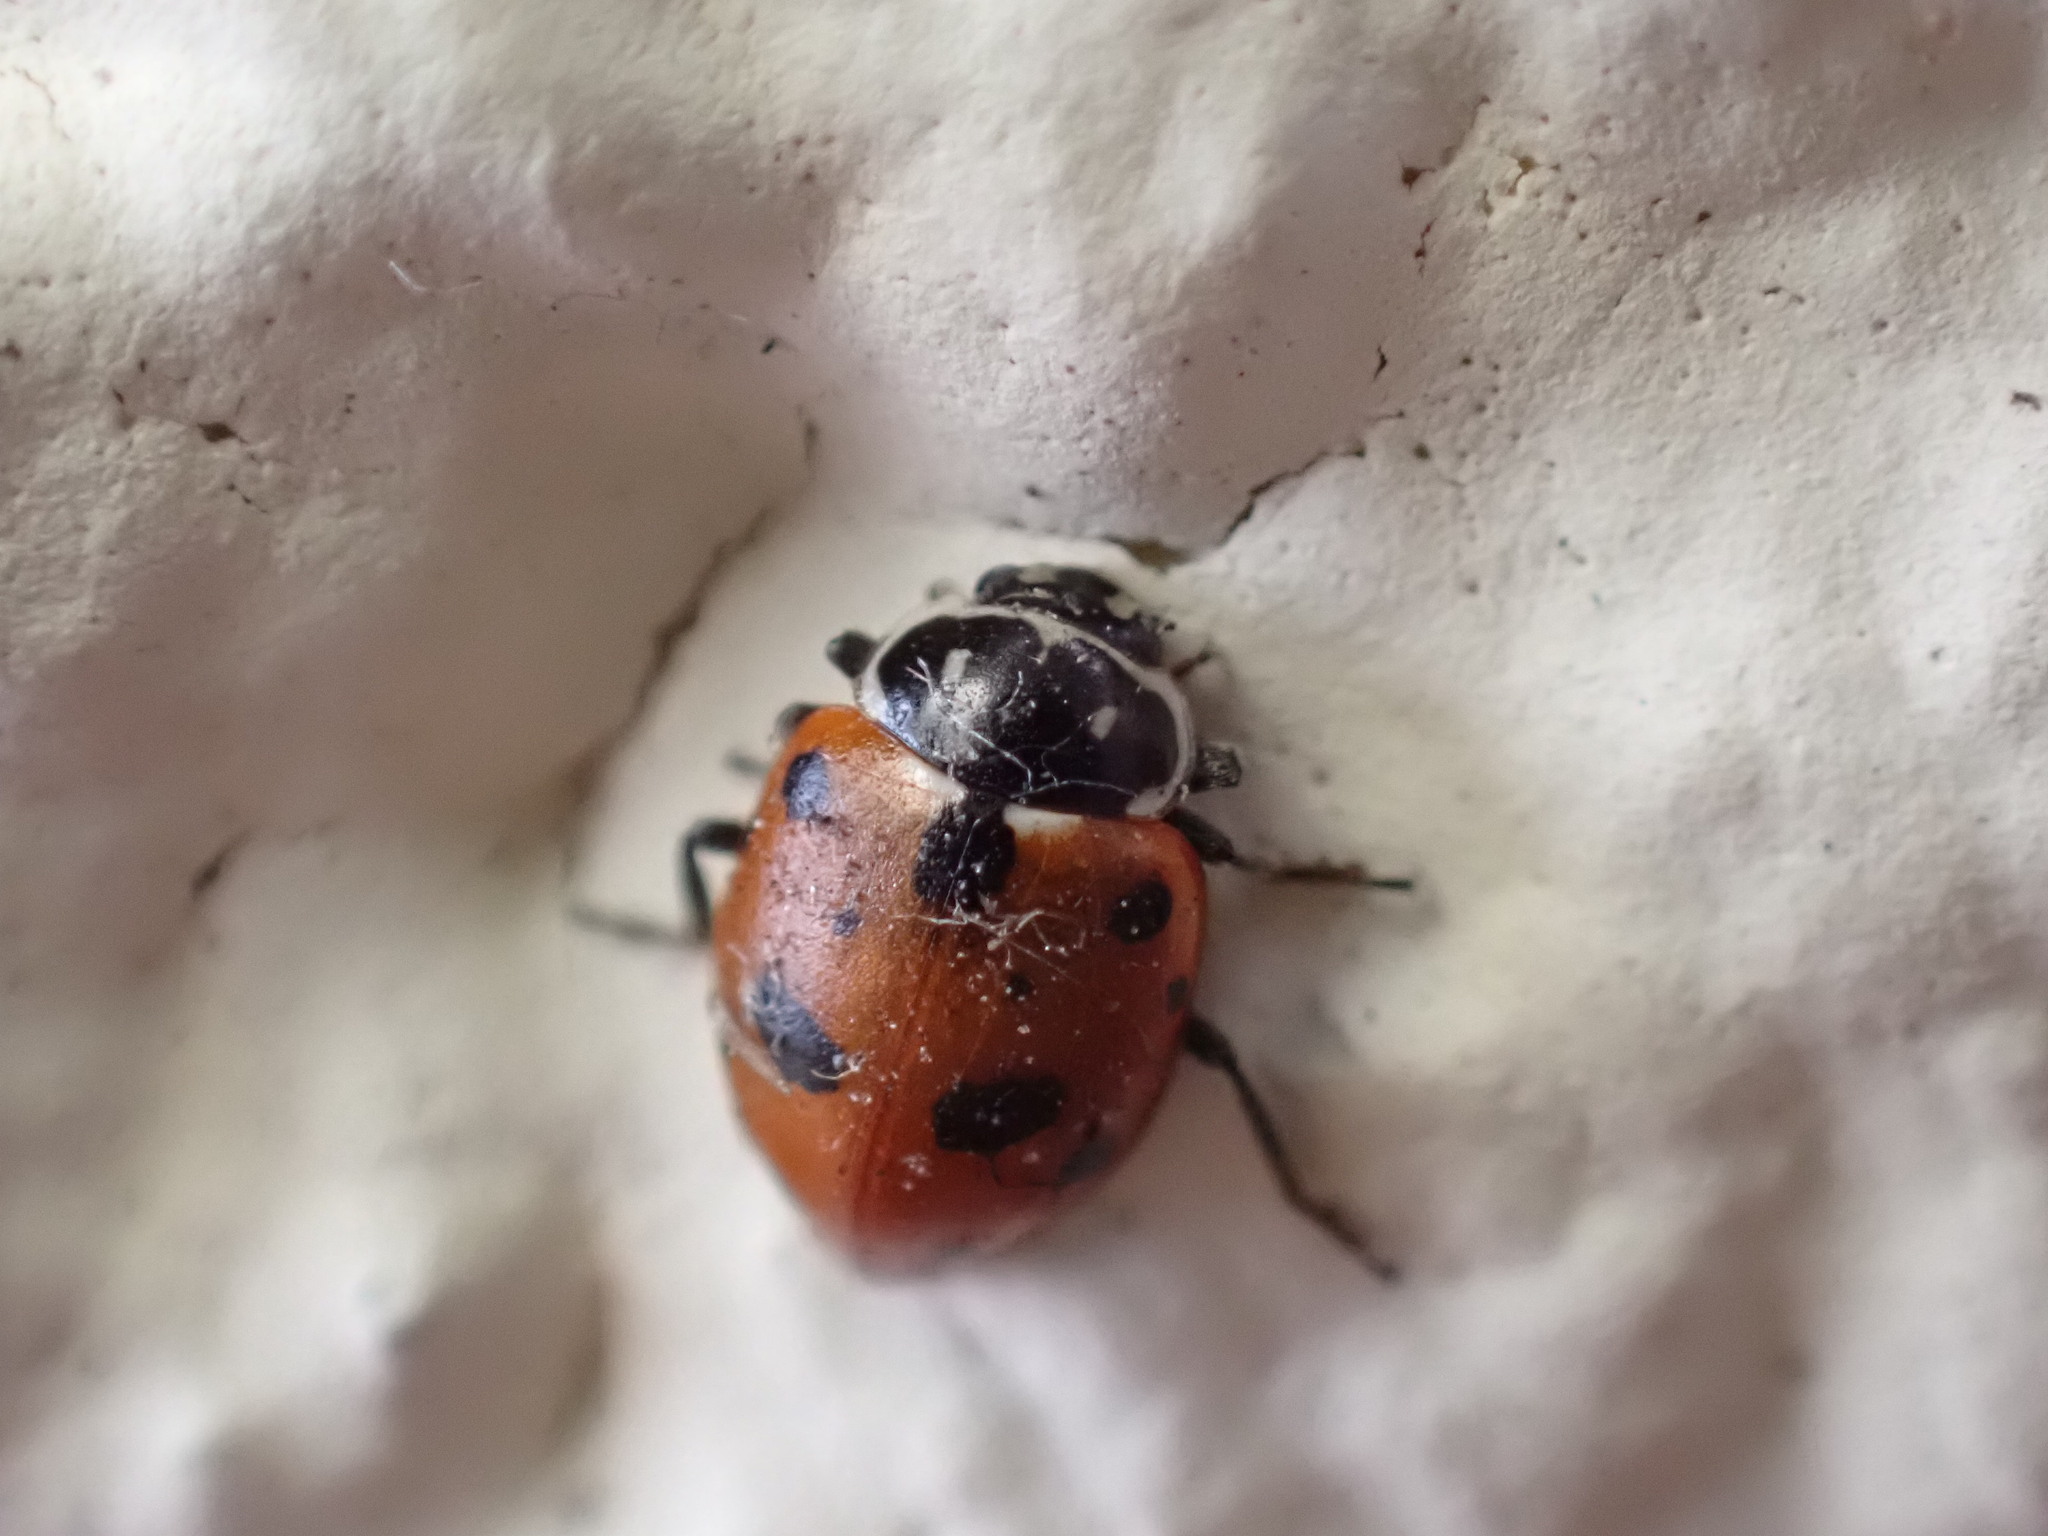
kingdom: Animalia
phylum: Arthropoda
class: Insecta
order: Coleoptera
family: Coccinellidae
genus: Hippodamia
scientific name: Hippodamia variegata
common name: Ladybird beetle
